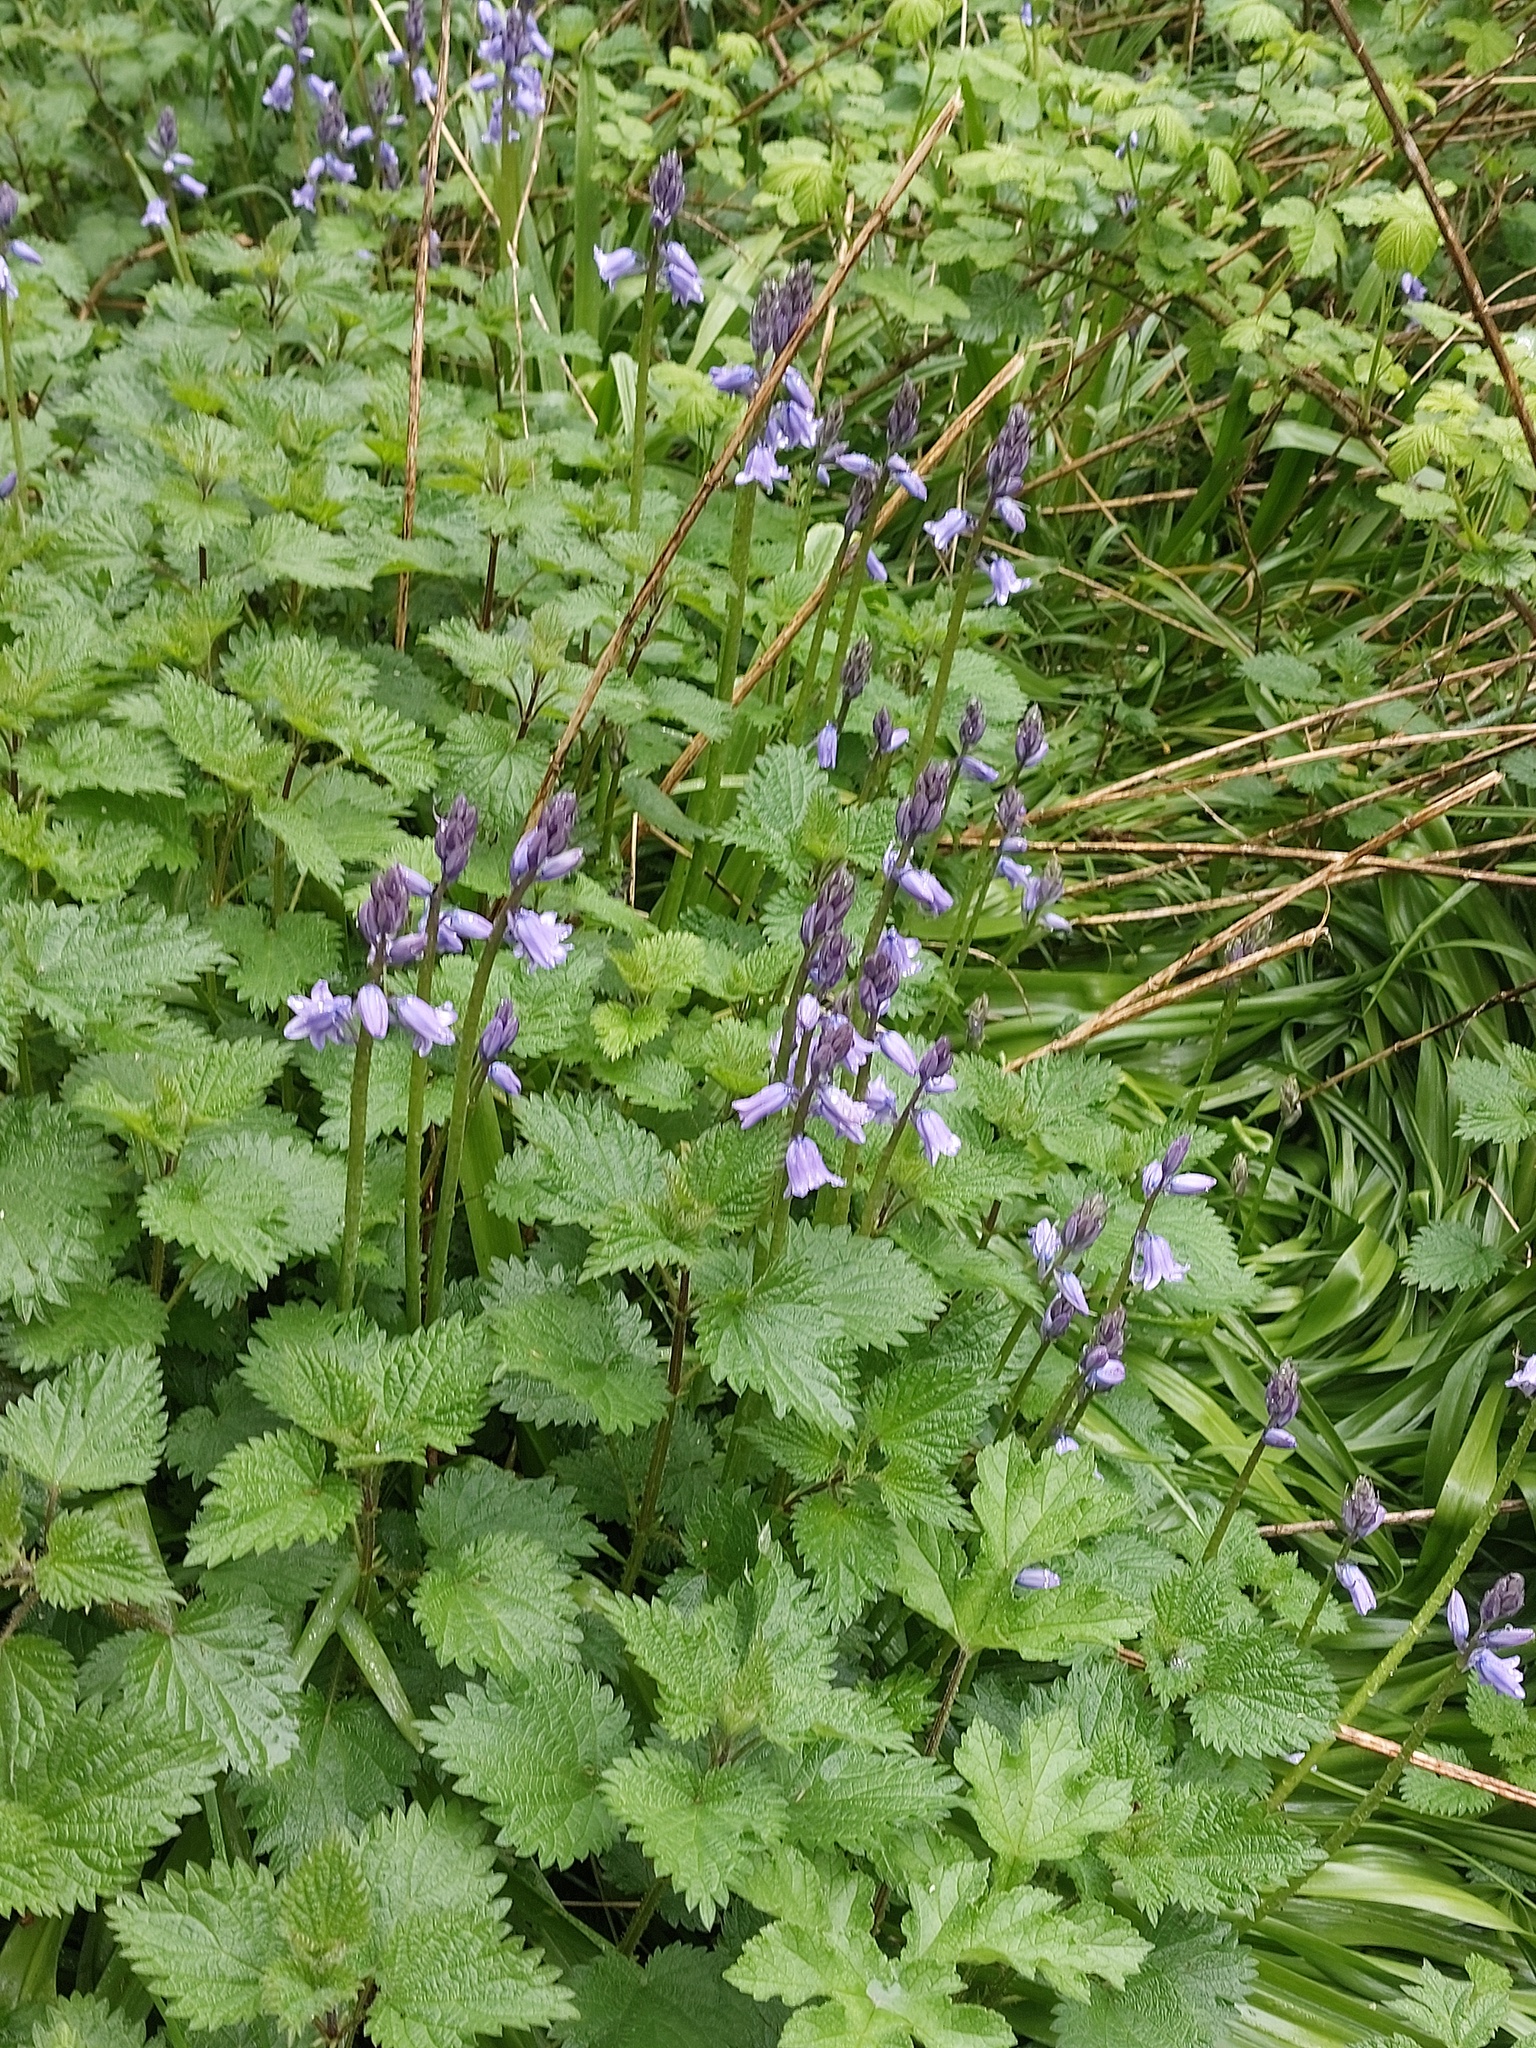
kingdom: Plantae
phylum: Tracheophyta
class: Liliopsida
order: Asparagales
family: Asparagaceae
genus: Hyacinthoides
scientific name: Hyacinthoides hispanica
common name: Spanish bluebell
